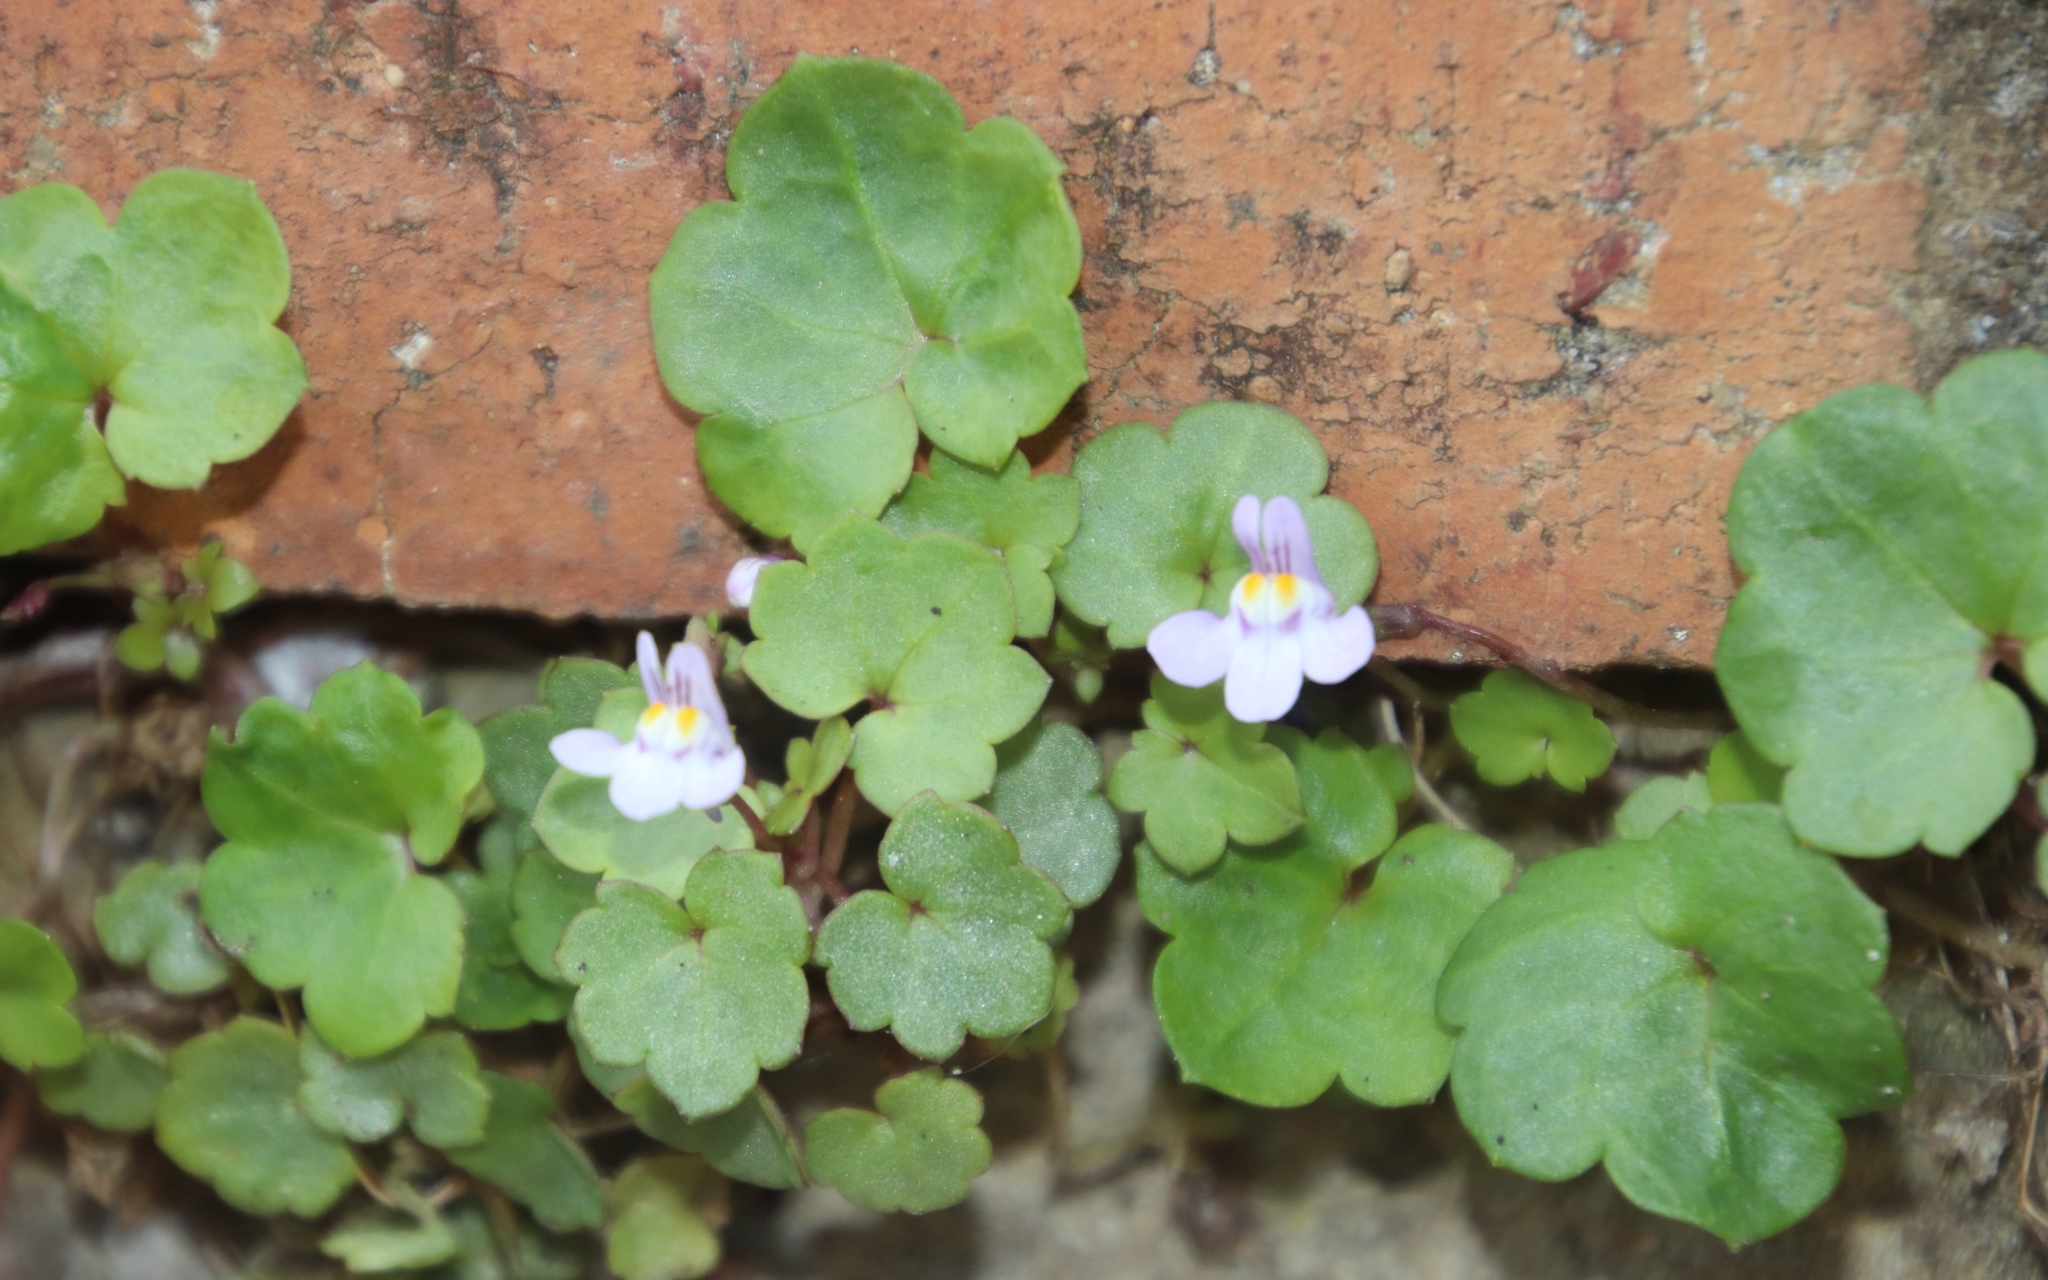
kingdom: Plantae
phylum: Tracheophyta
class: Magnoliopsida
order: Lamiales
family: Plantaginaceae
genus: Cymbalaria
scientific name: Cymbalaria muralis
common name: Ivy-leaved toadflax
